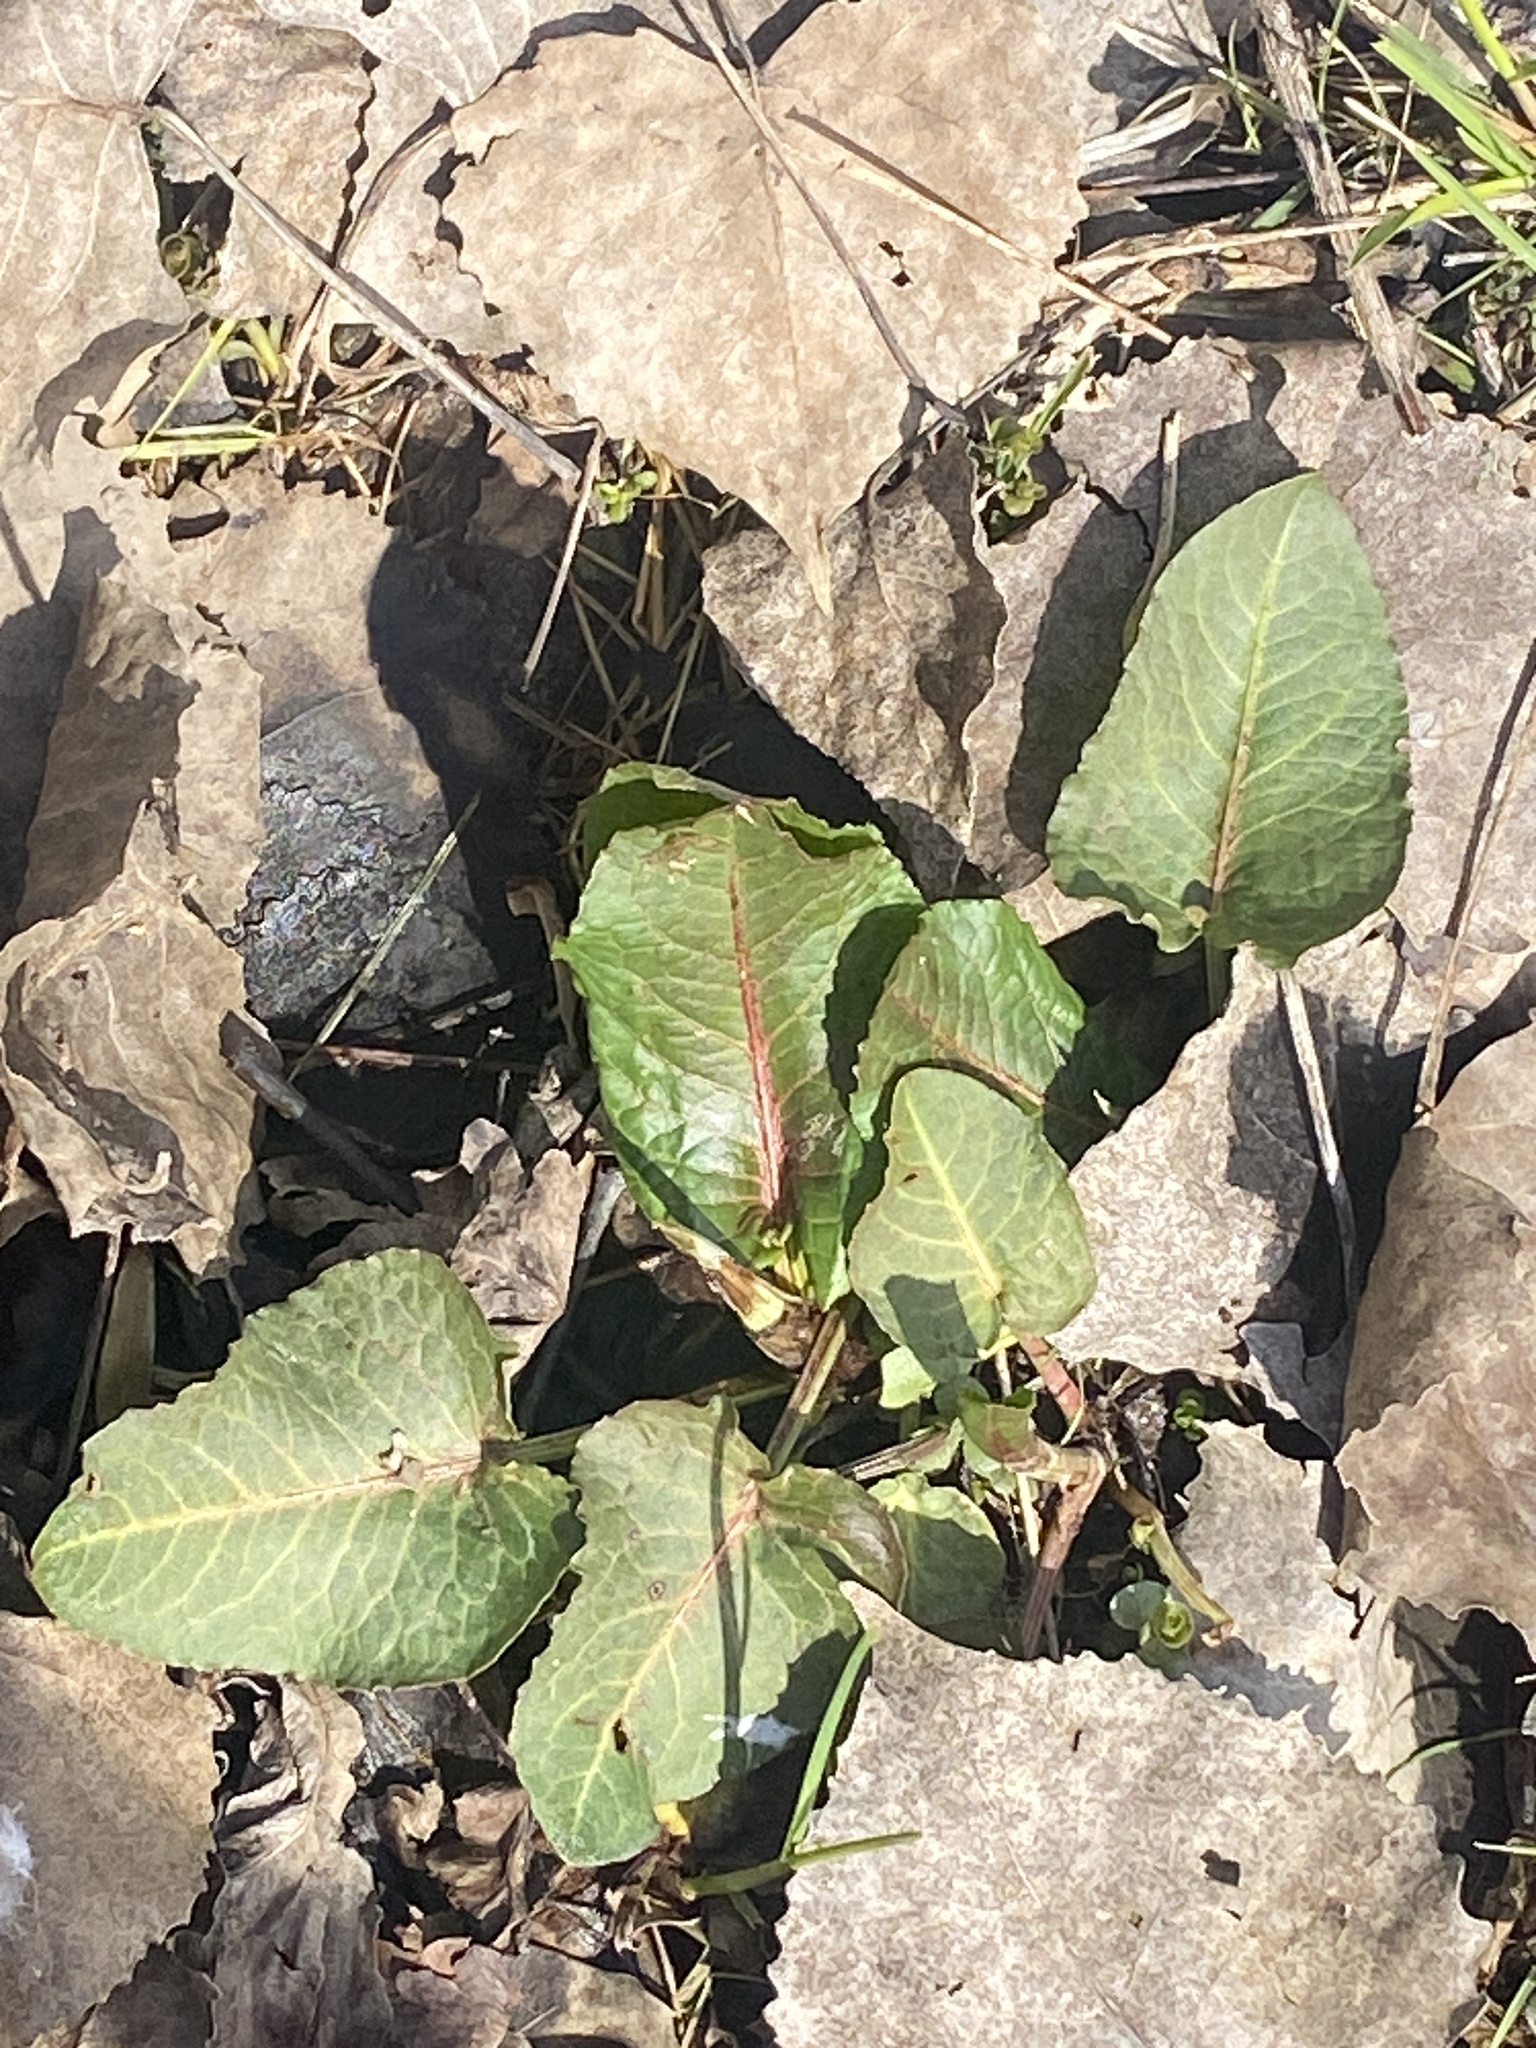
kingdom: Plantae
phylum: Tracheophyta
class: Magnoliopsida
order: Caryophyllales
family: Polygonaceae
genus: Rumex
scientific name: Rumex obtusifolius
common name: Bitter dock
